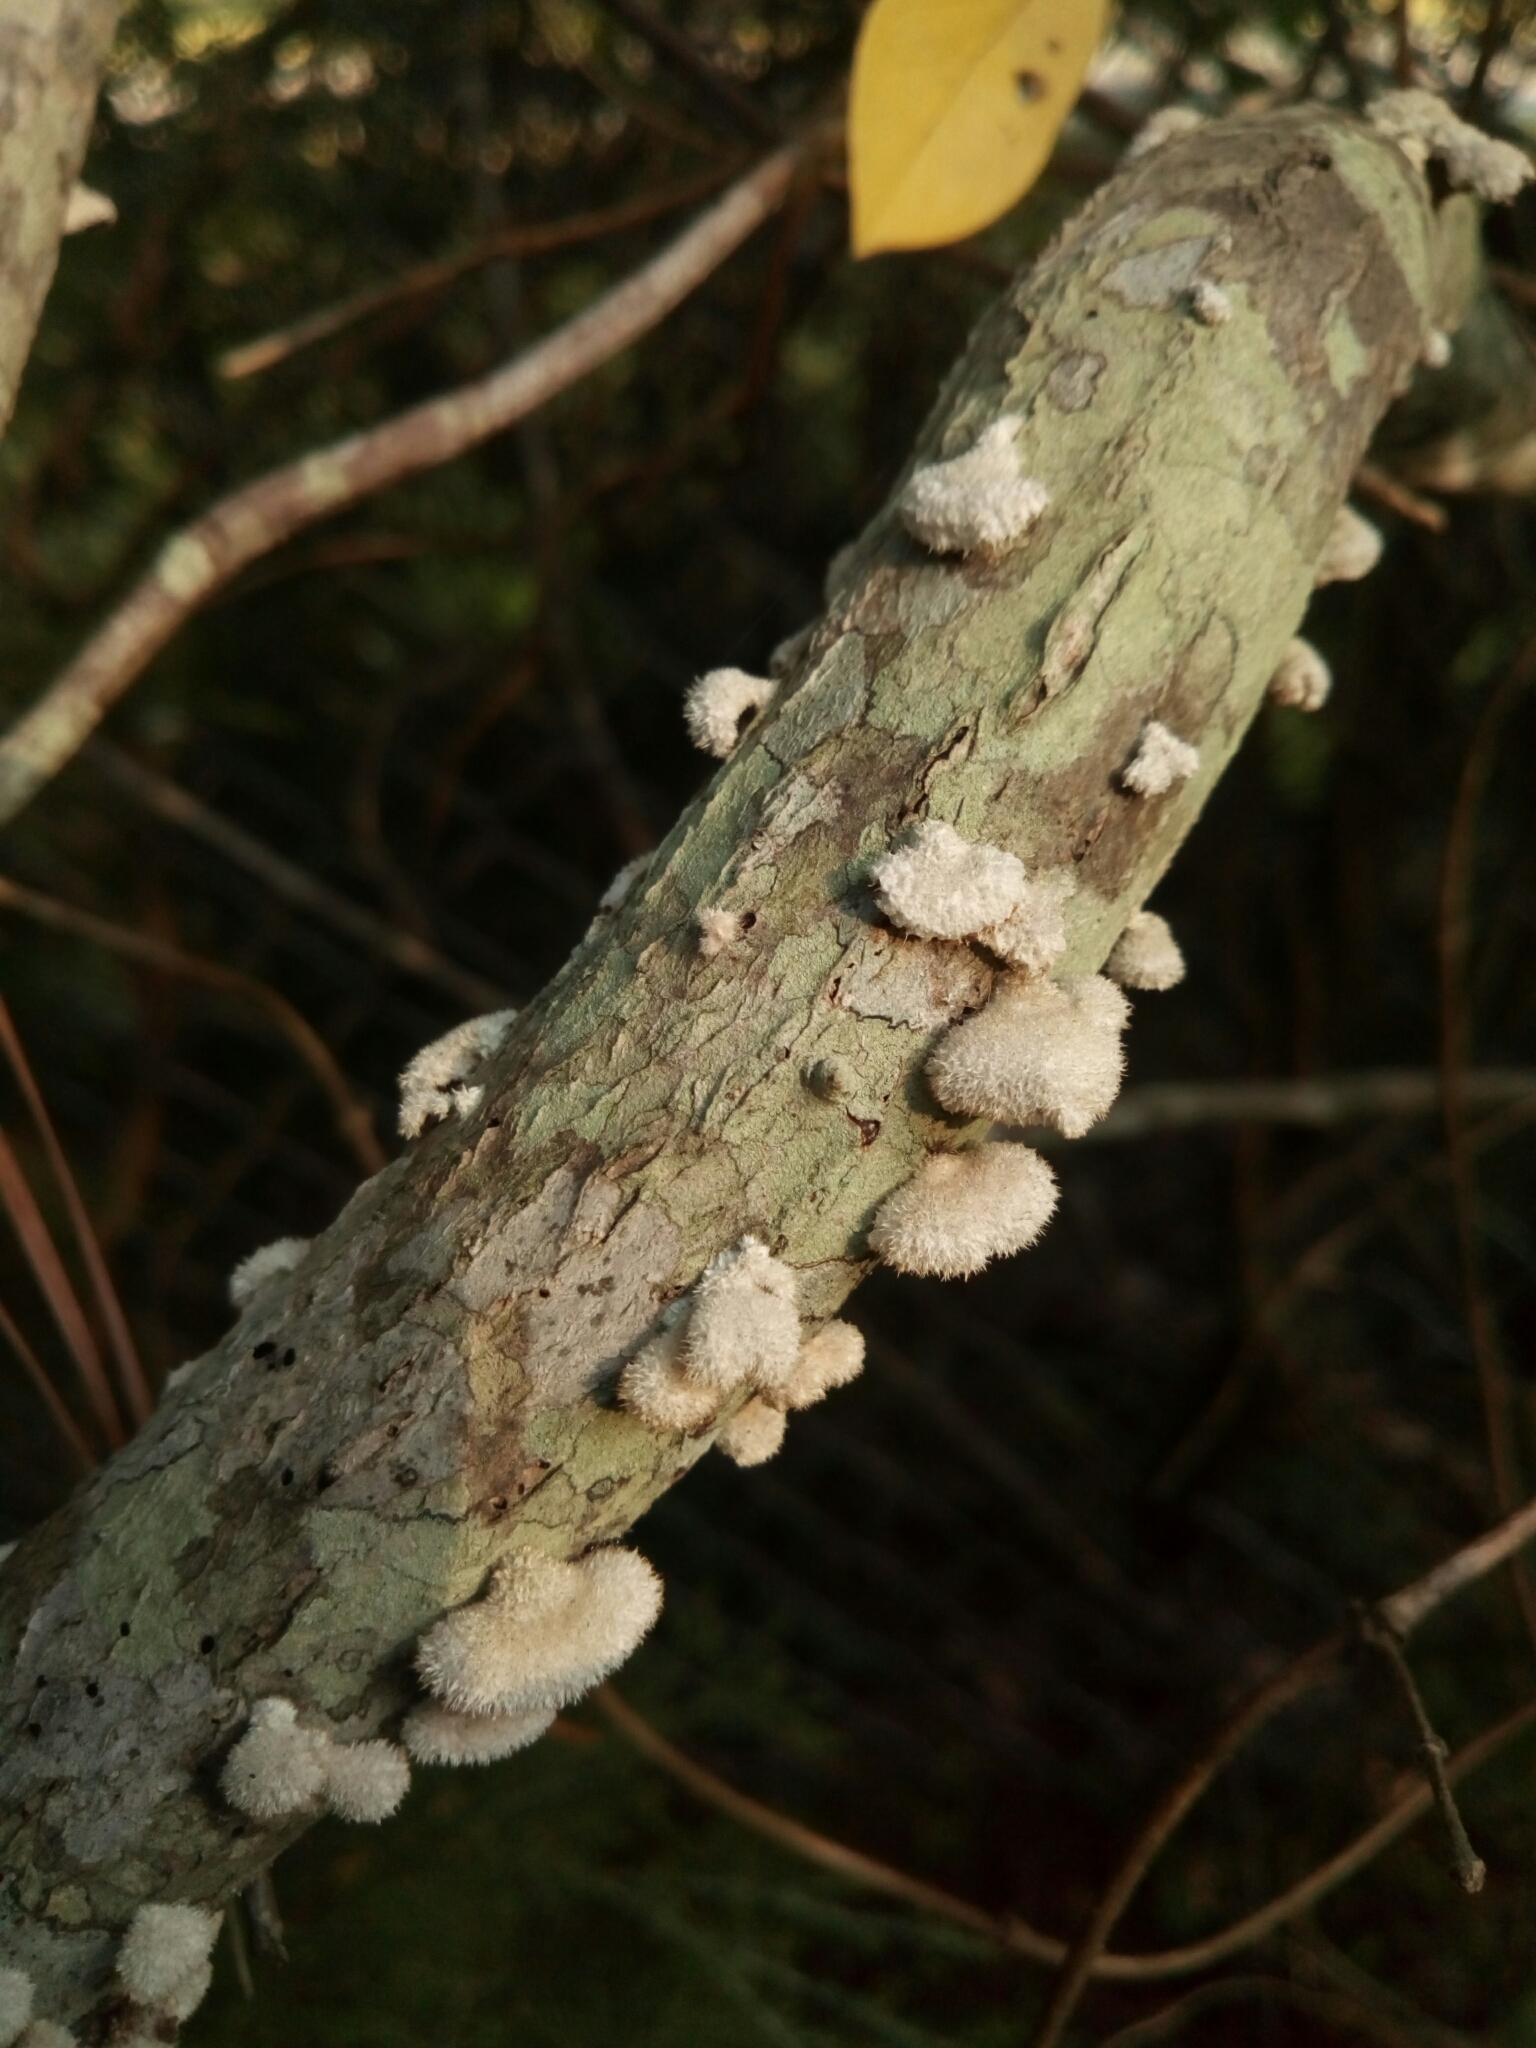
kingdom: Fungi
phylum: Basidiomycota
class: Agaricomycetes
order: Agaricales
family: Schizophyllaceae
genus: Schizophyllum
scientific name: Schizophyllum commune
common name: Common porecrust
